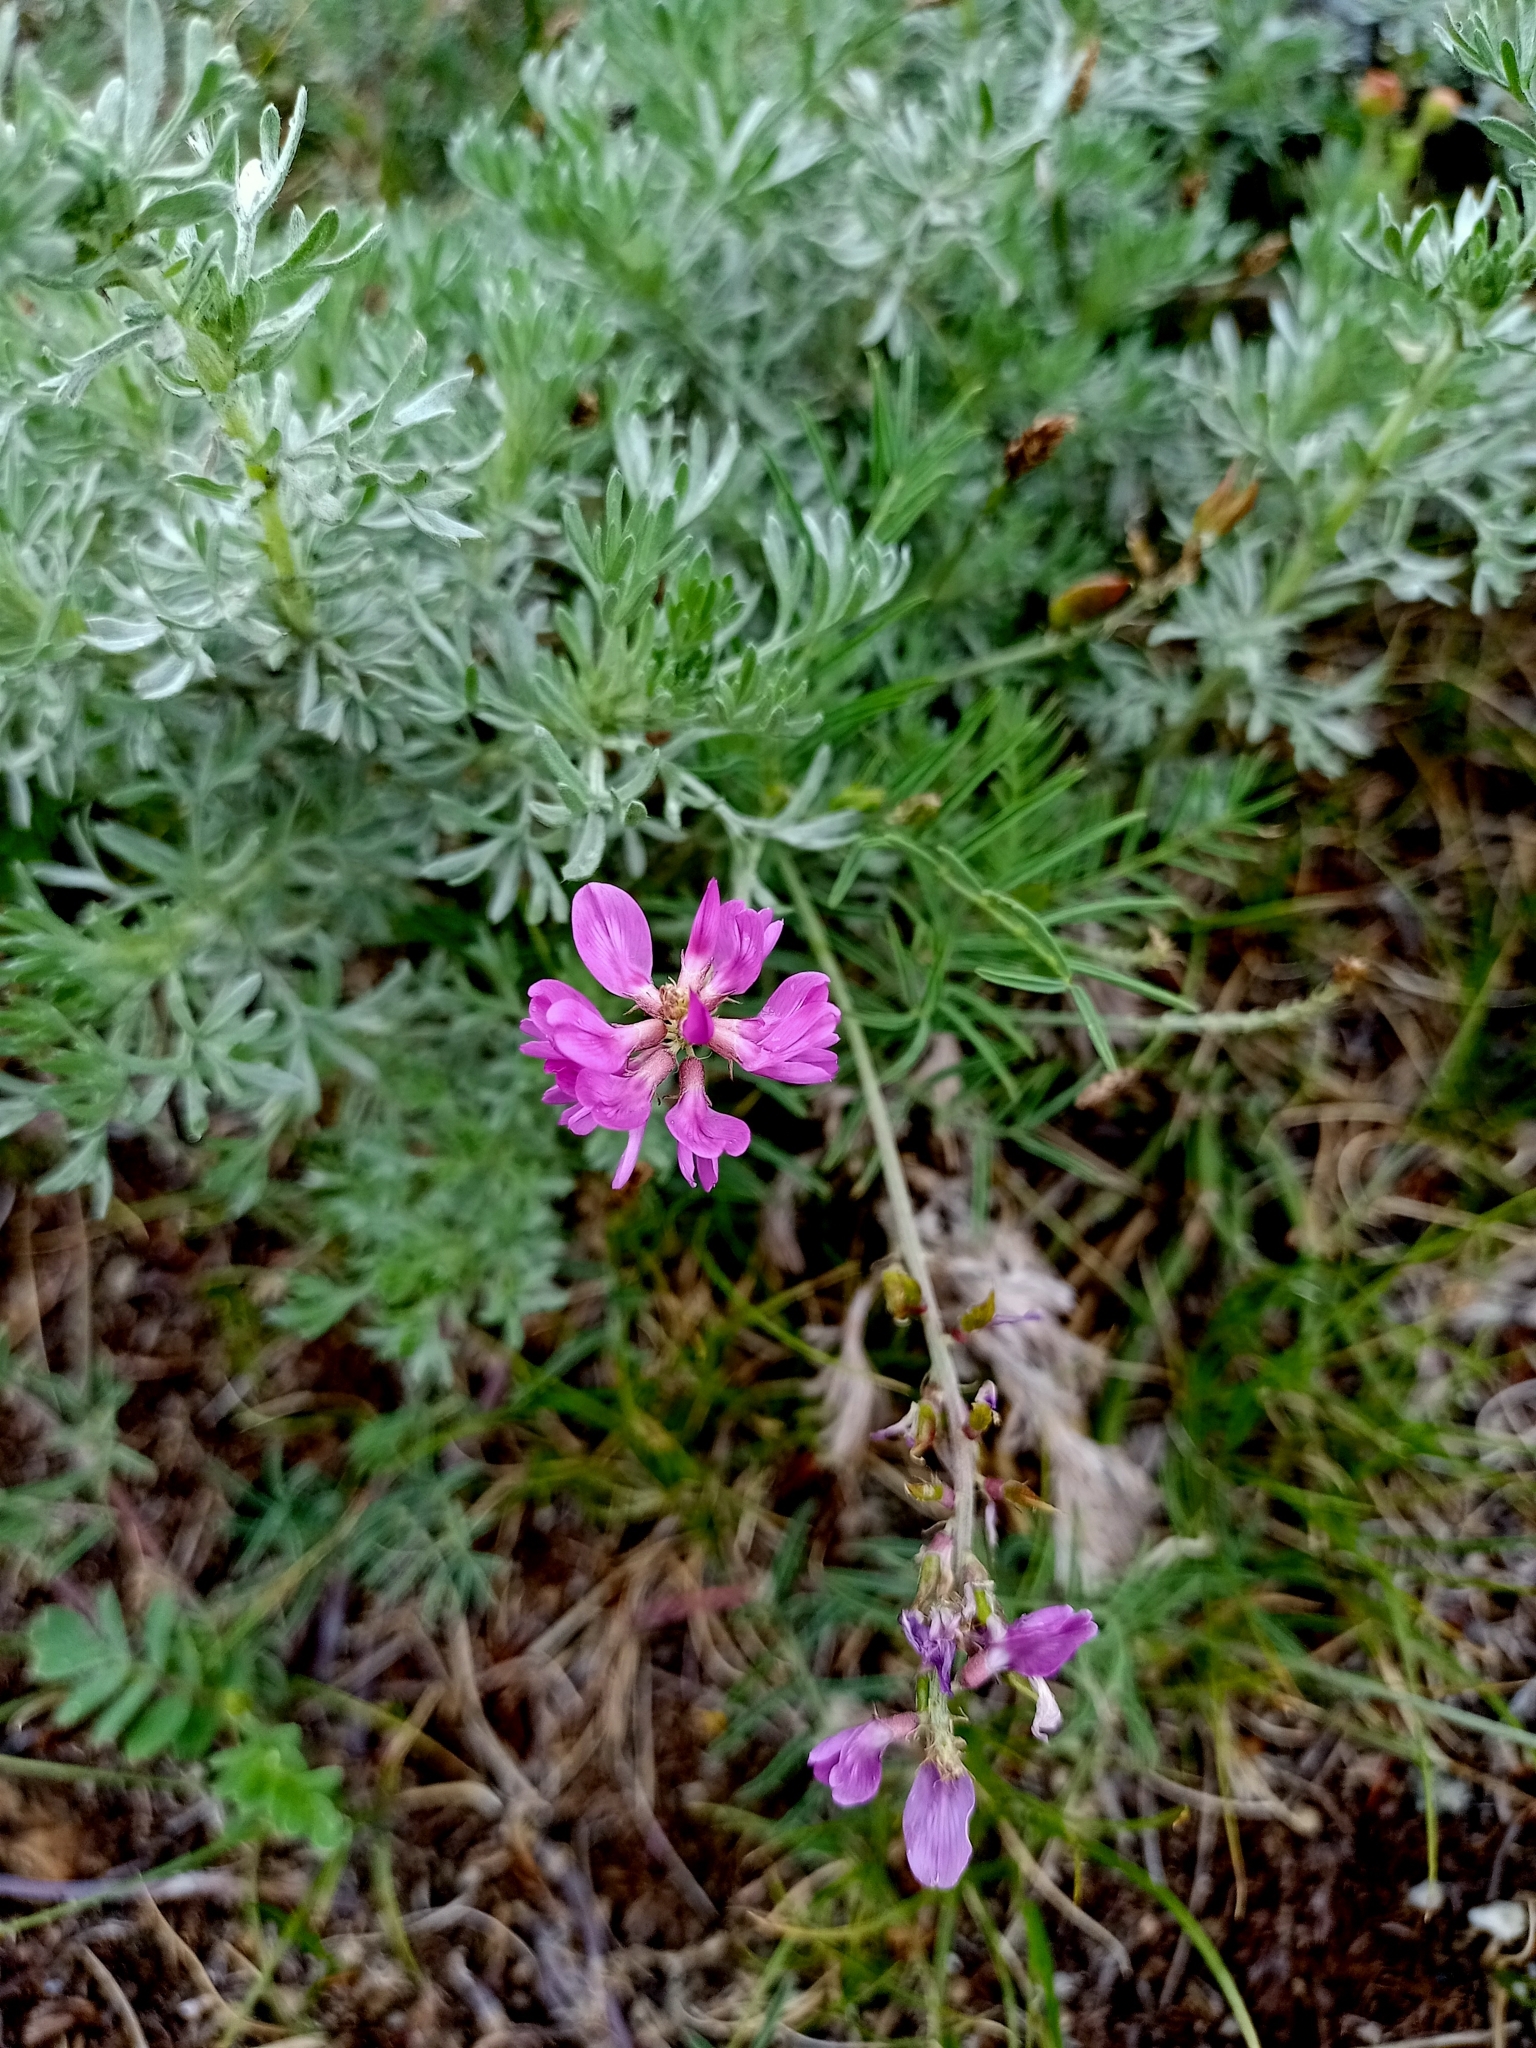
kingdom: Plantae
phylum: Tracheophyta
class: Magnoliopsida
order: Fabales
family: Fabaceae
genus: Astragalus
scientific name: Astragalus versicolor
